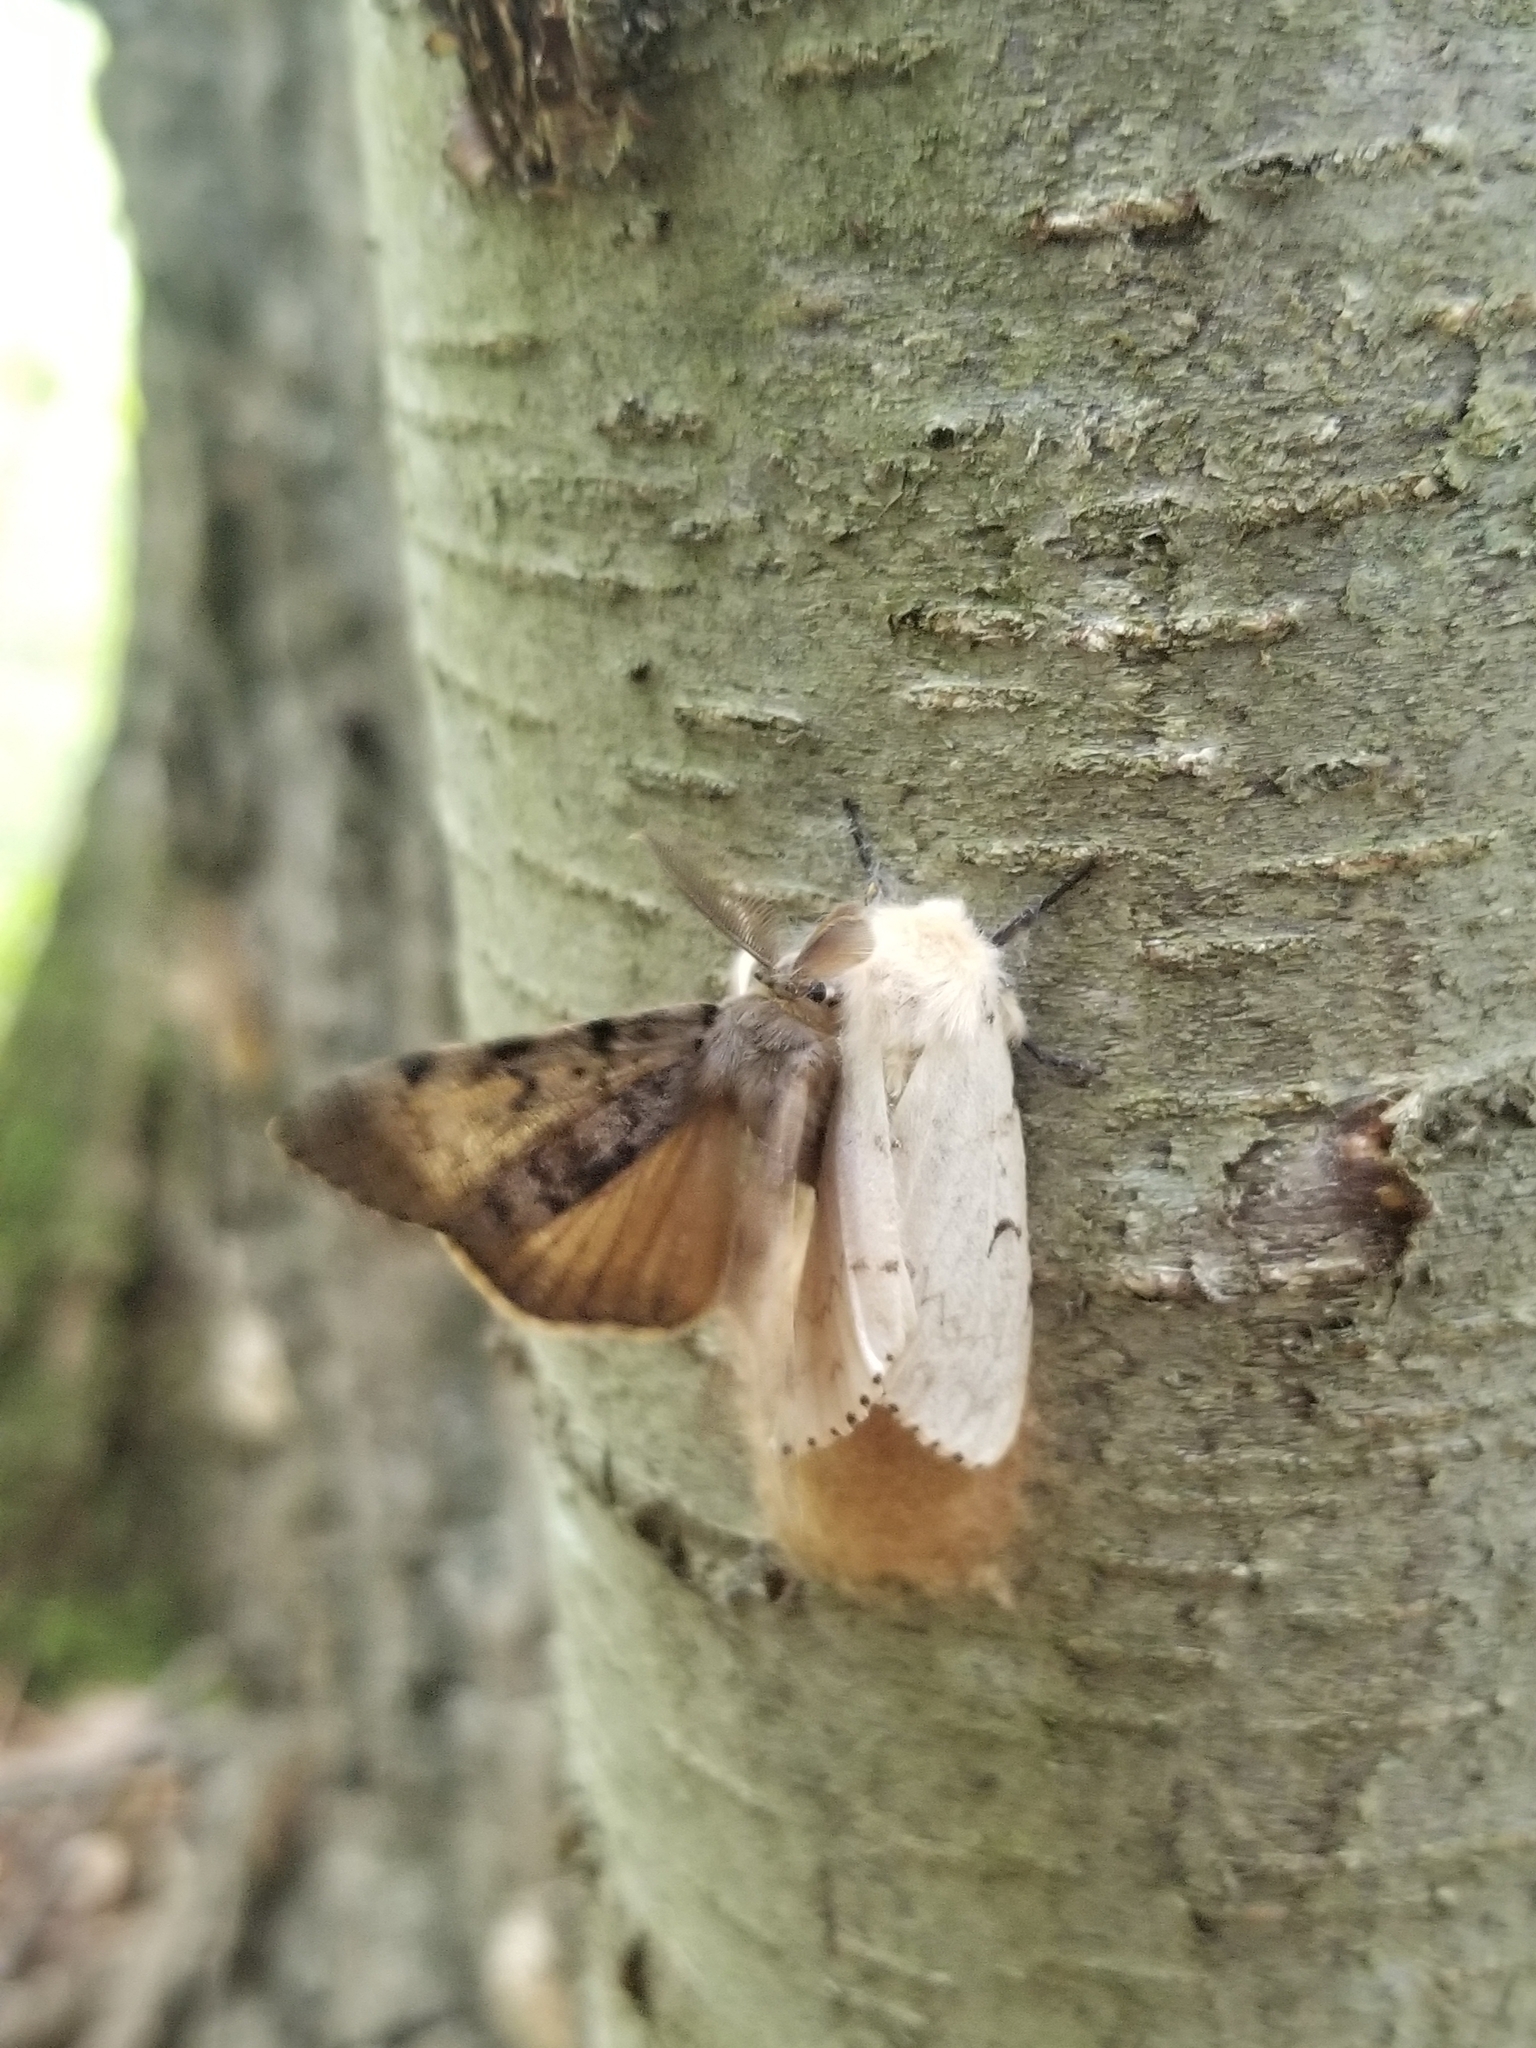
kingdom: Animalia
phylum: Arthropoda
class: Insecta
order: Lepidoptera
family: Erebidae
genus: Lymantria
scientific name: Lymantria dispar
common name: Gypsy moth
